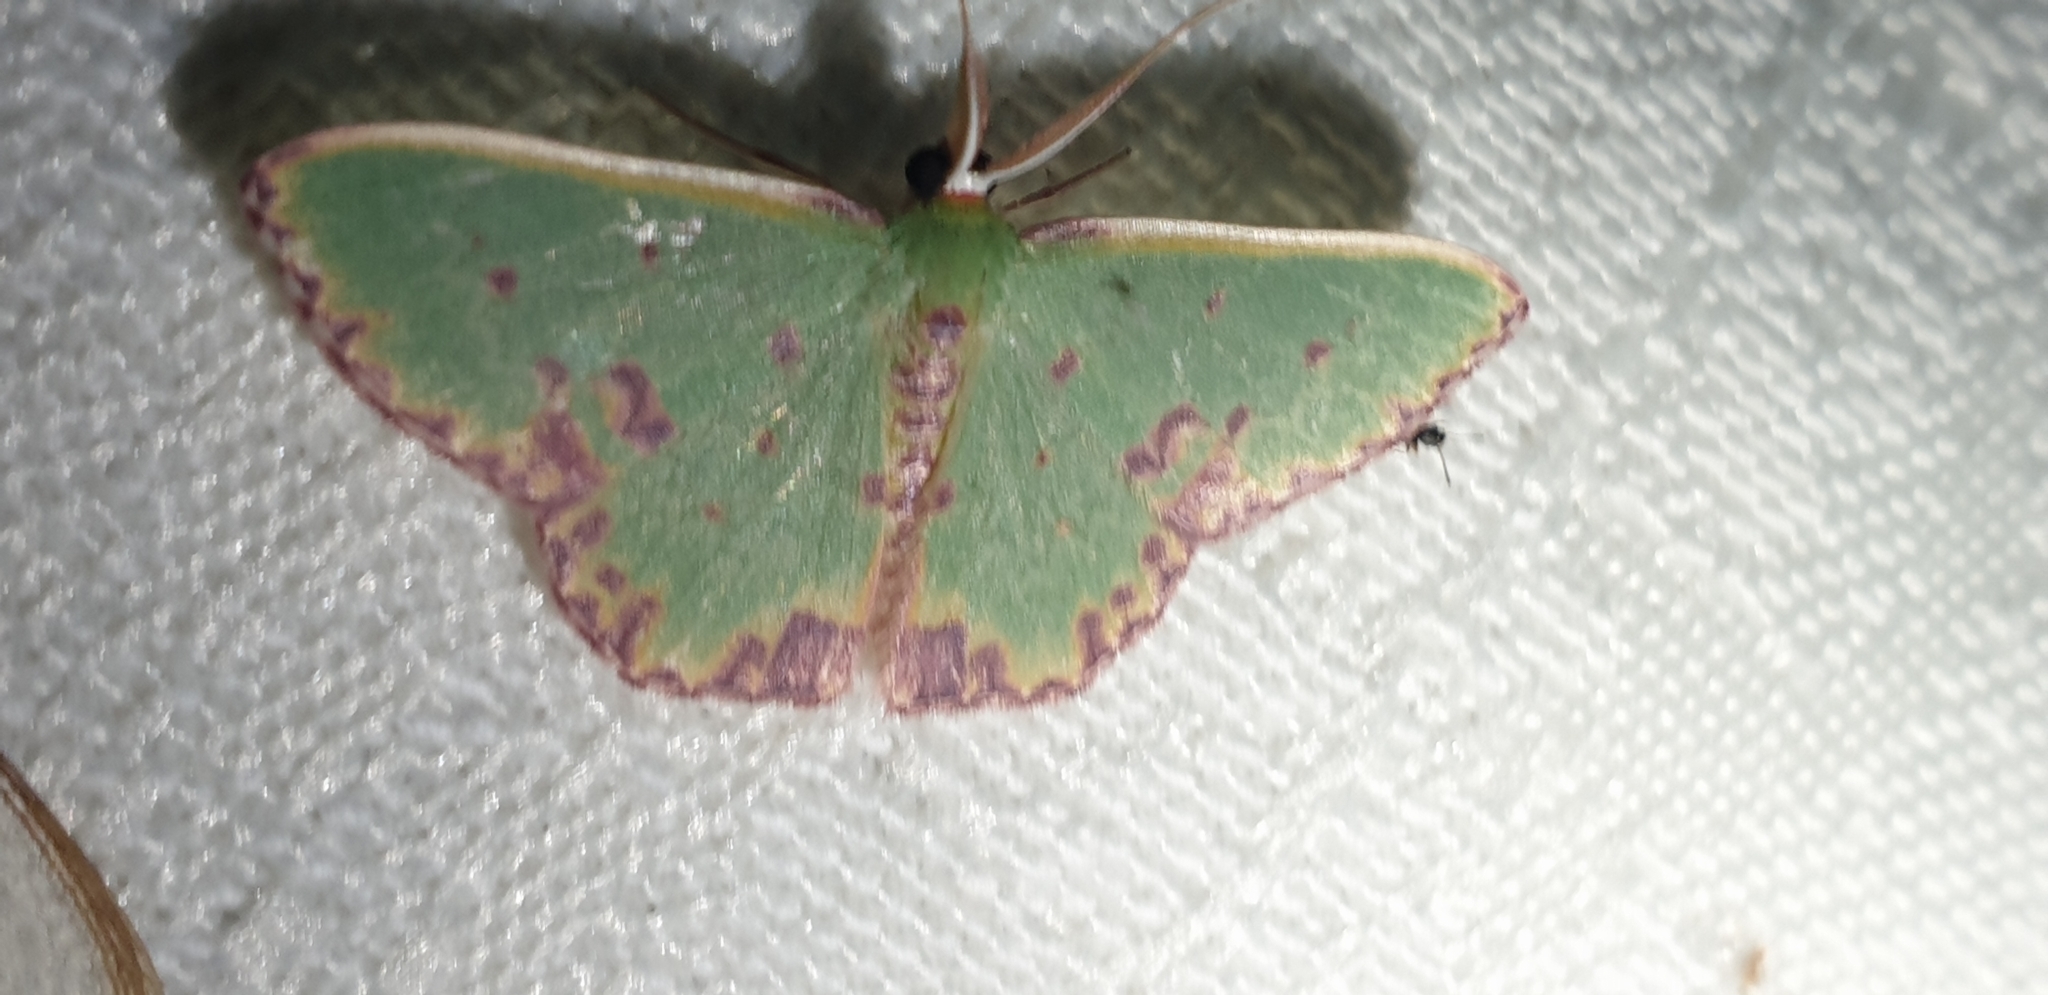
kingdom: Animalia
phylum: Arthropoda
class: Insecta
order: Lepidoptera
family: Geometridae
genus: Prasinocyma
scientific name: Prasinocyma rhodocosma
